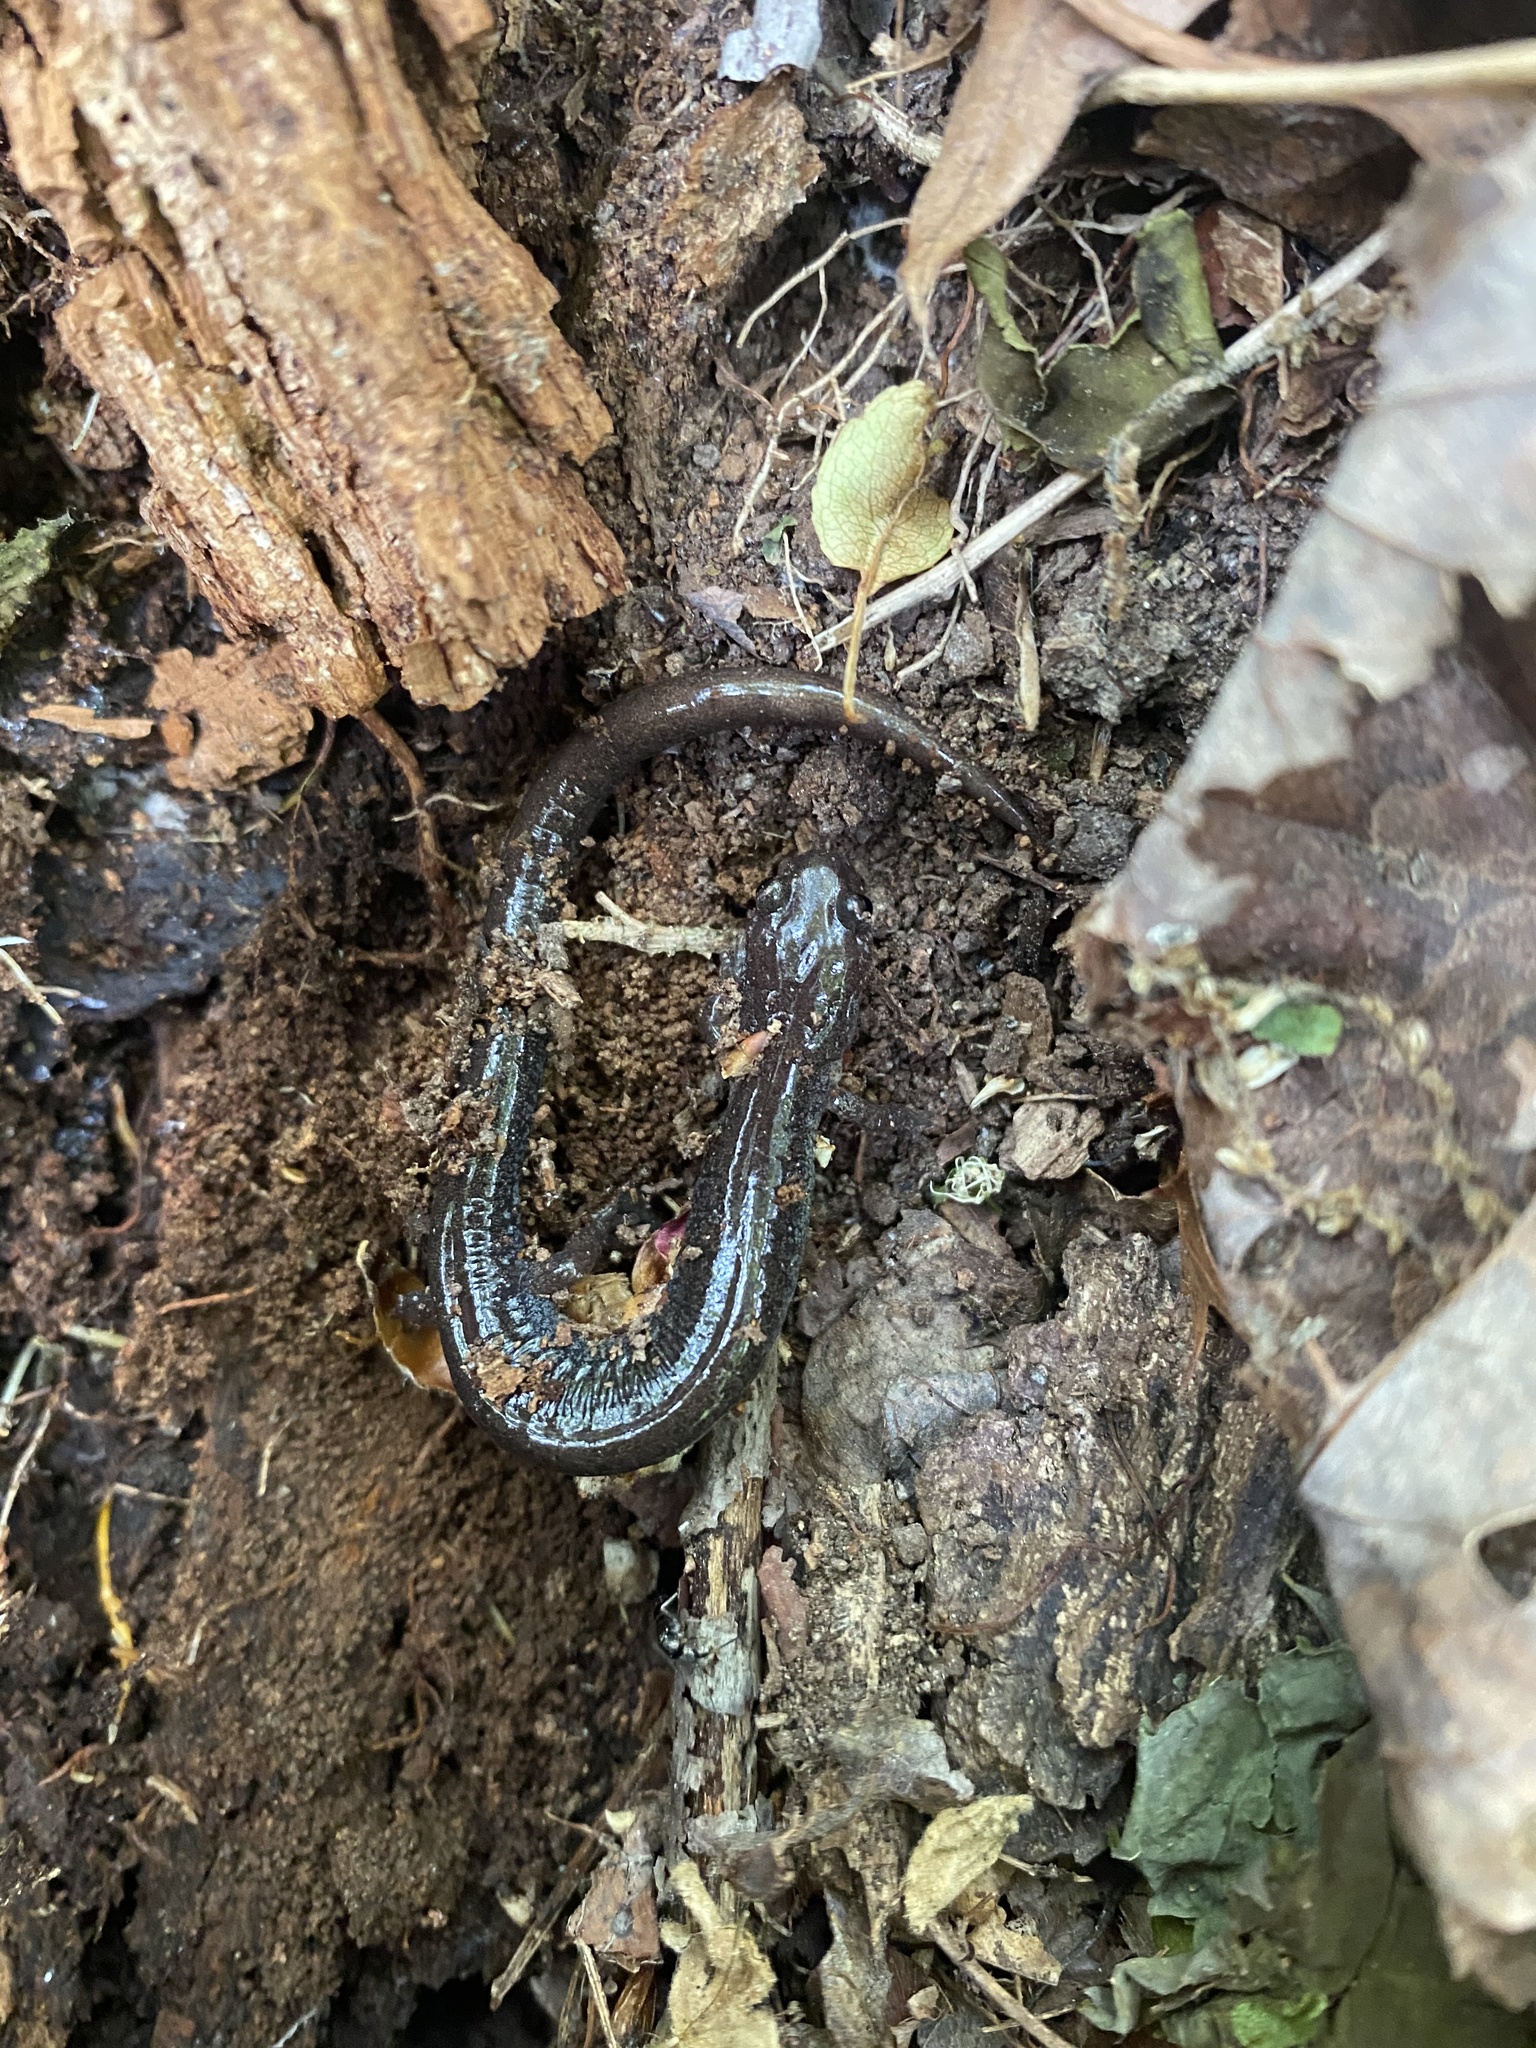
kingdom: Animalia
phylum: Chordata
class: Amphibia
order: Caudata
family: Plethodontidae
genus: Plethodon
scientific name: Plethodon cinereus
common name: Redback salamander
